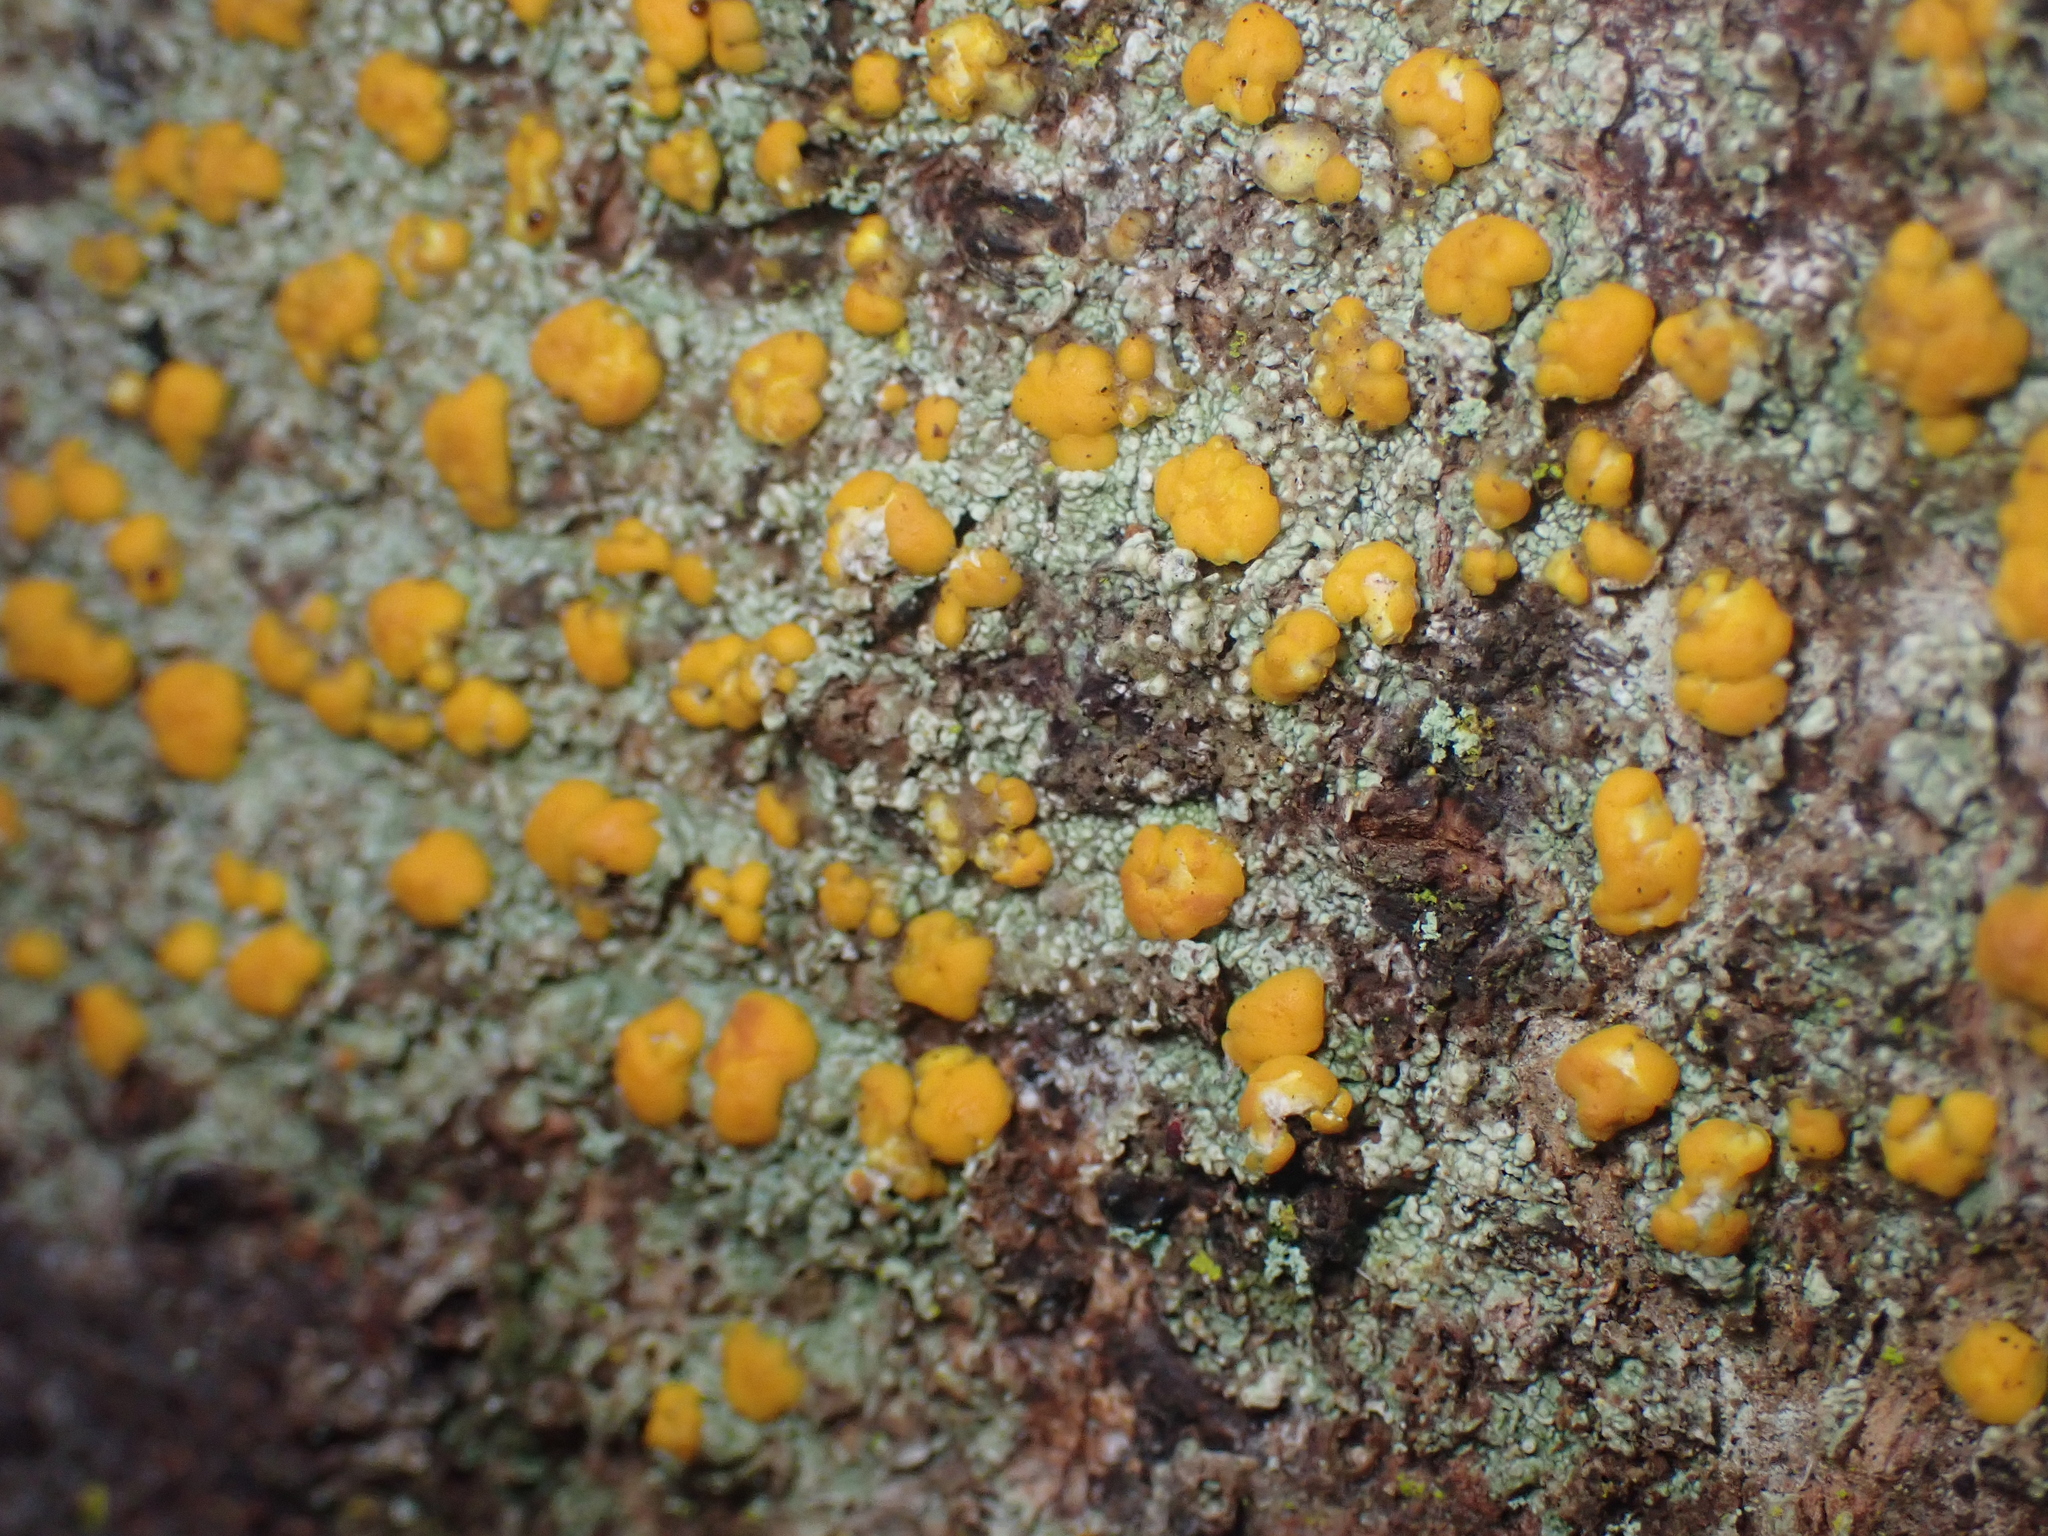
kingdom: Fungi
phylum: Ascomycota
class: Lecanoromycetes
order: Lecanorales
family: Ramalinaceae
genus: Stirtoniella
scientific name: Stirtoniella kelica
